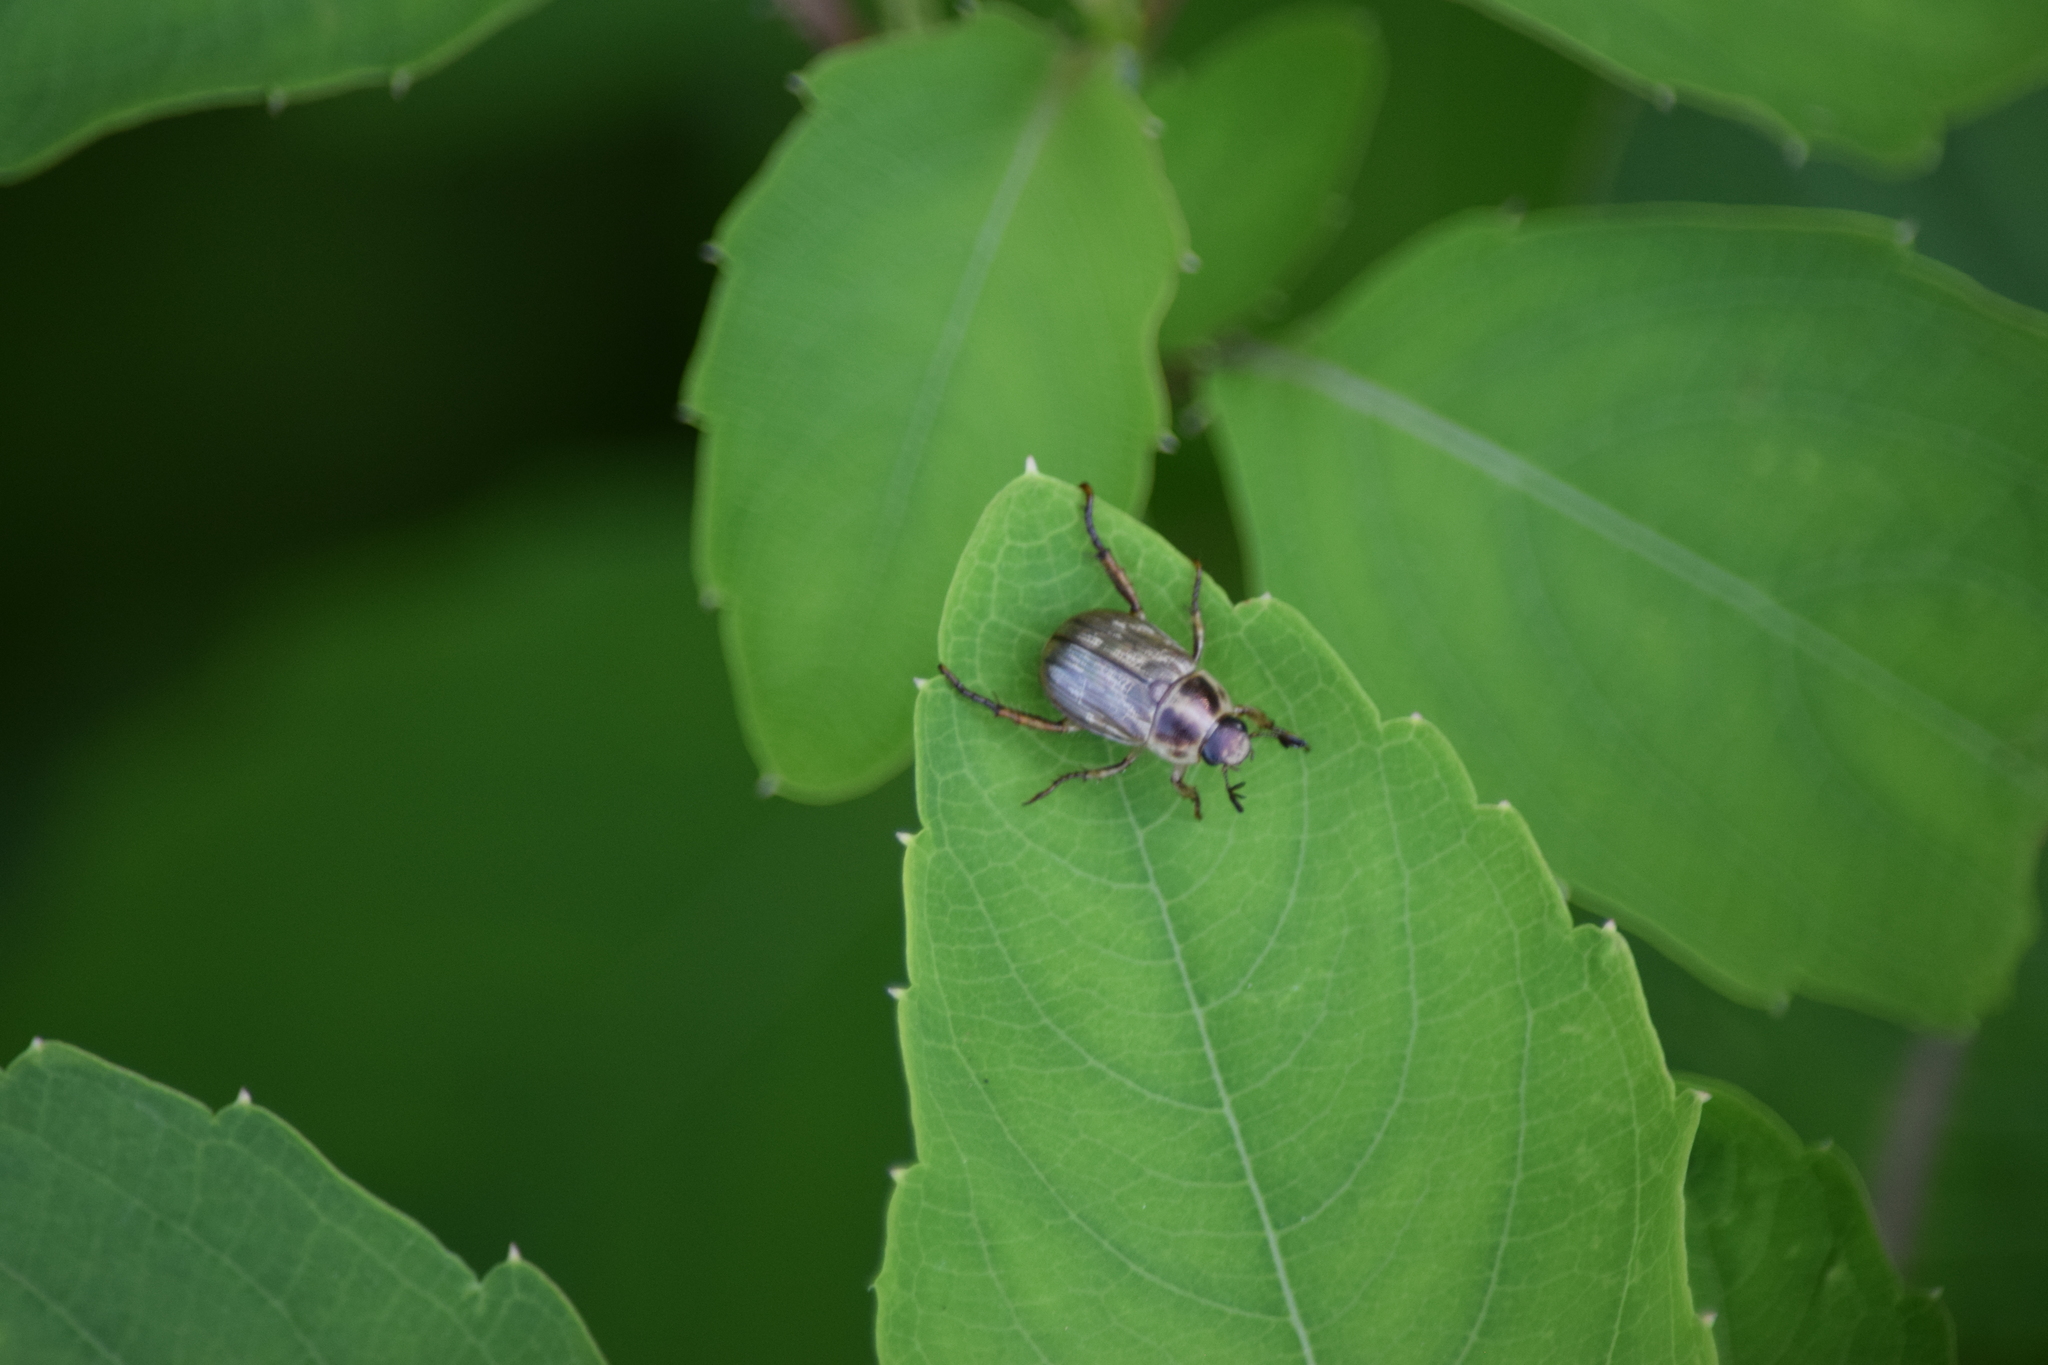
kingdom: Animalia
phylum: Arthropoda
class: Insecta
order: Coleoptera
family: Scarabaeidae
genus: Exomala
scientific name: Exomala orientalis
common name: Oriental beetle
